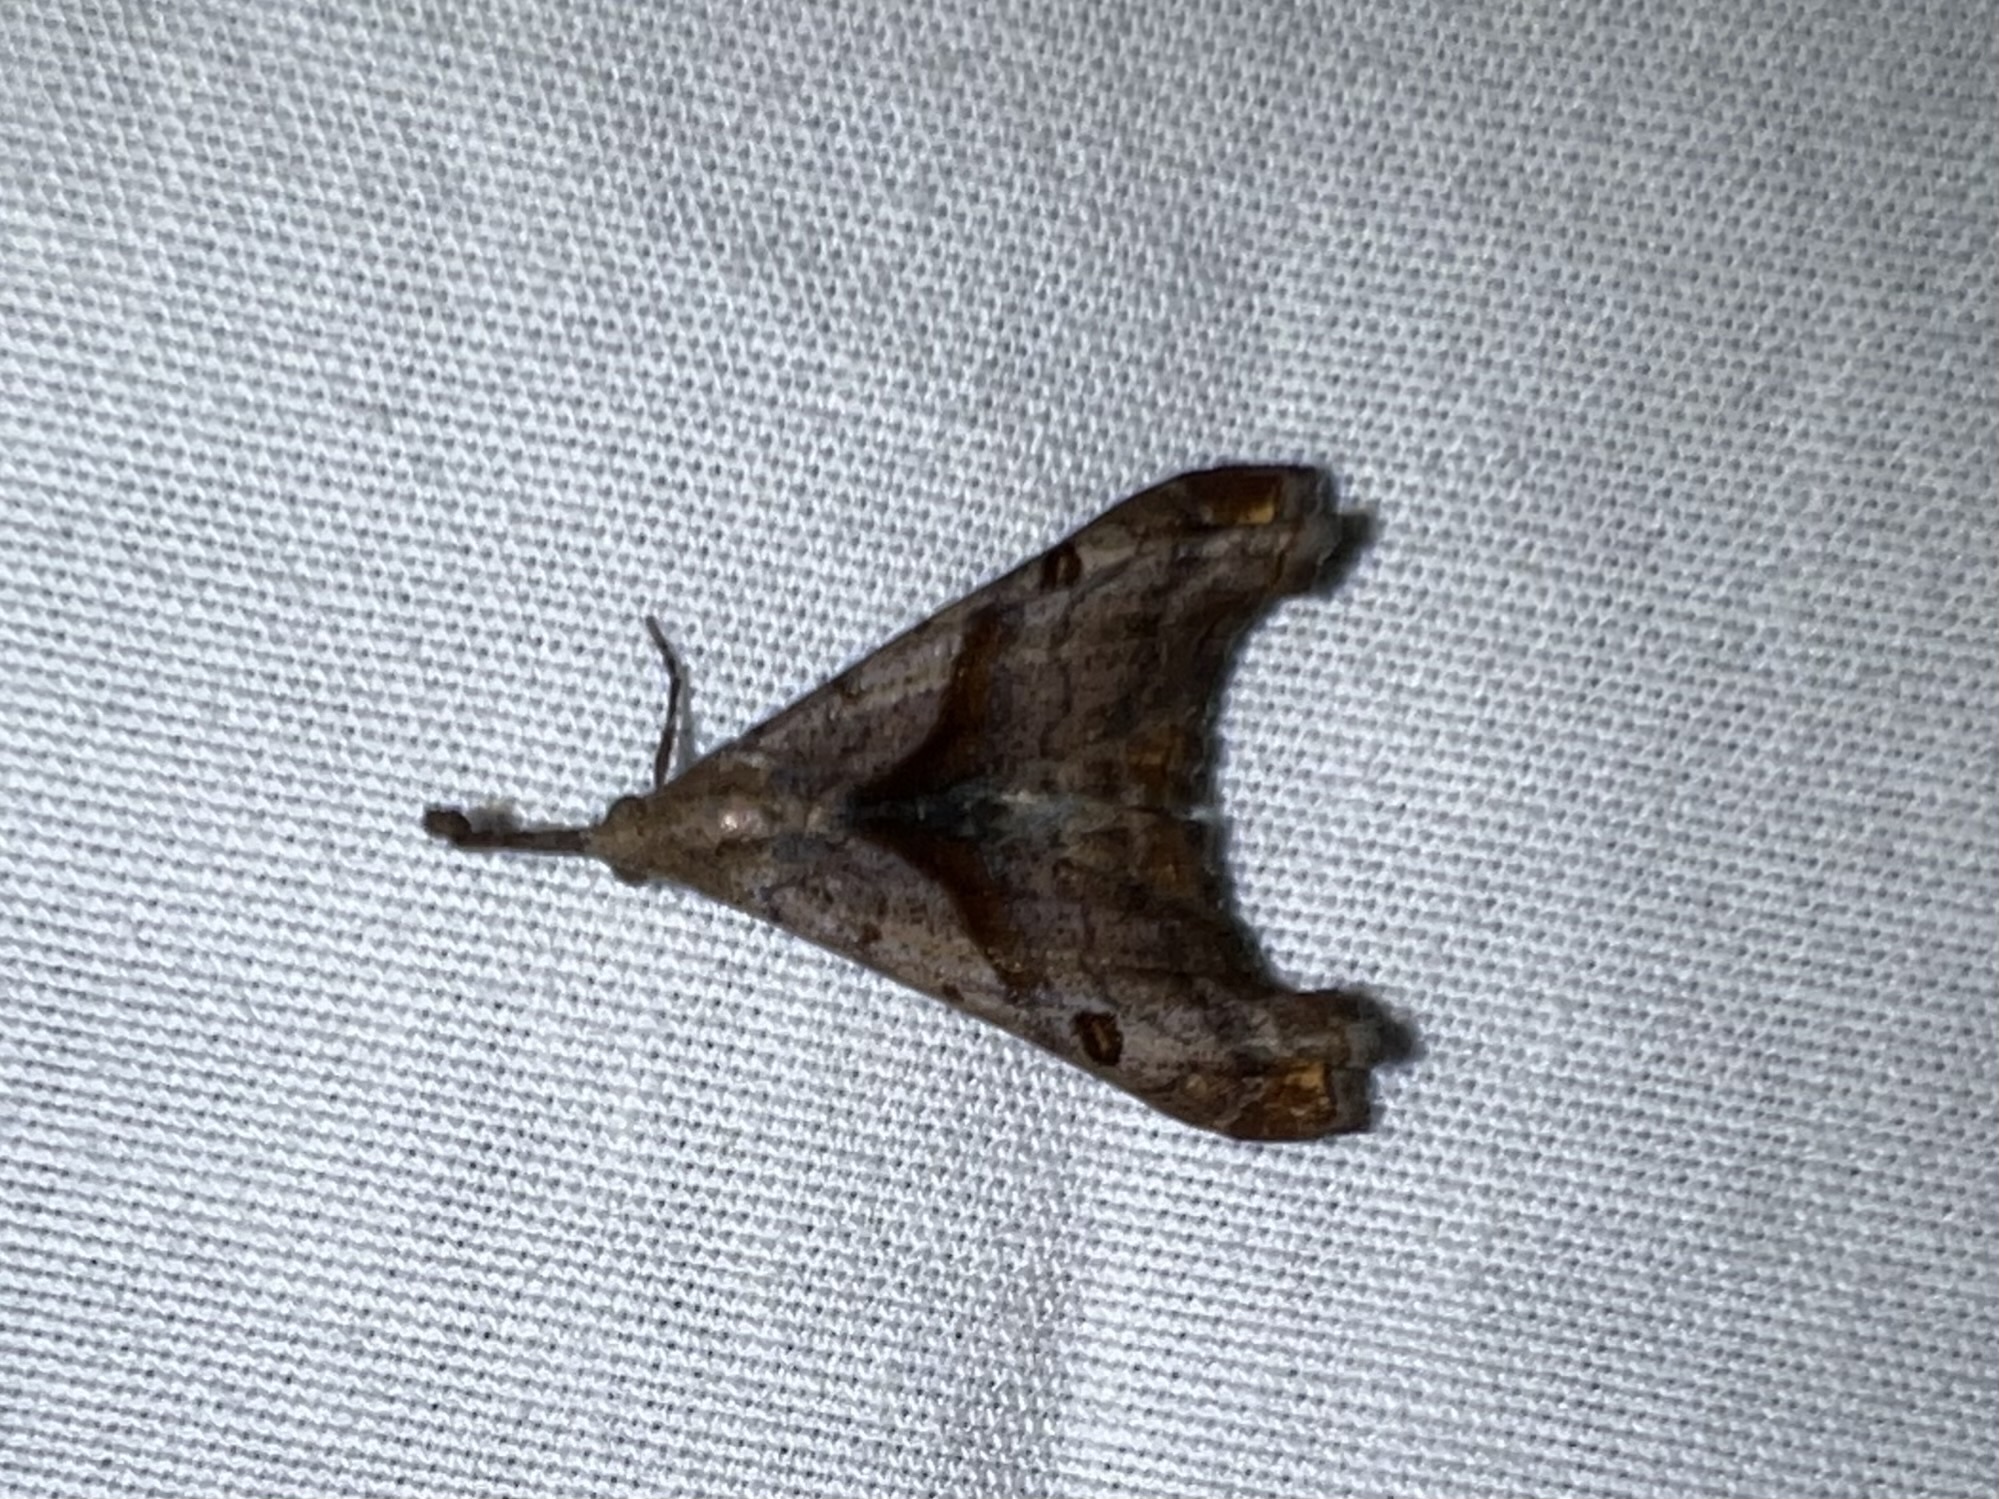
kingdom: Animalia
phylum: Arthropoda
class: Insecta
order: Lepidoptera
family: Erebidae
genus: Palthis
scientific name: Palthis angulalis
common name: Dark-spotted palthis moth
